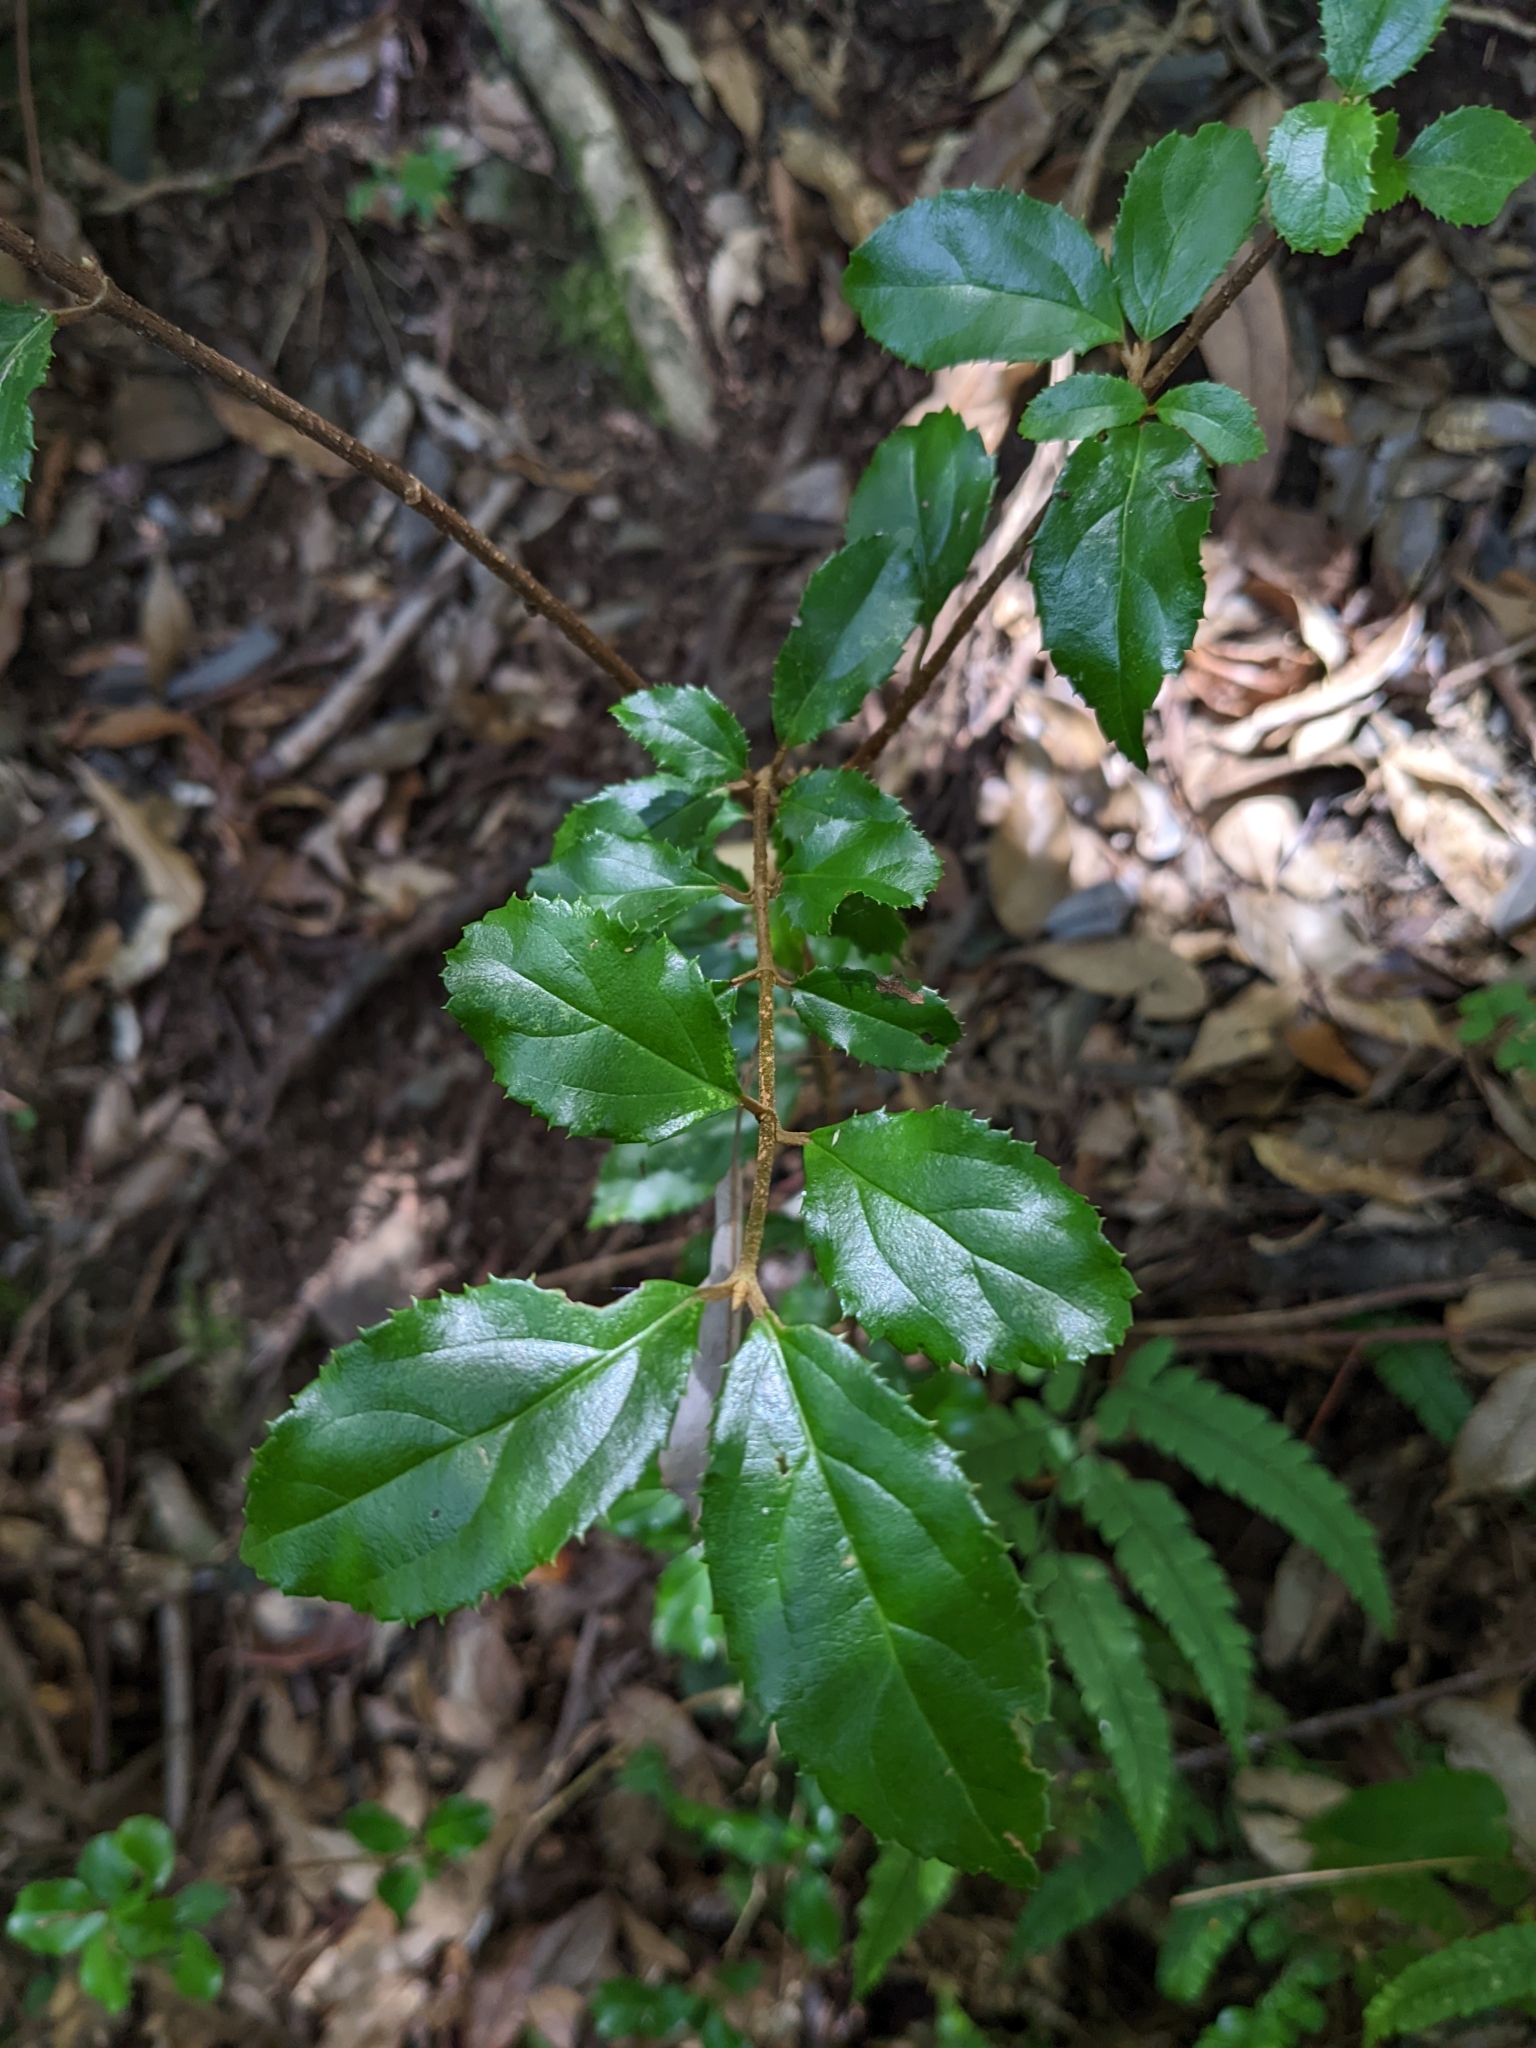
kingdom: Plantae
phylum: Tracheophyta
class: Magnoliopsida
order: Dipsacales
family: Viburnaceae
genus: Viburnum
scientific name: Viburnum suspensum
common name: Viburnum
